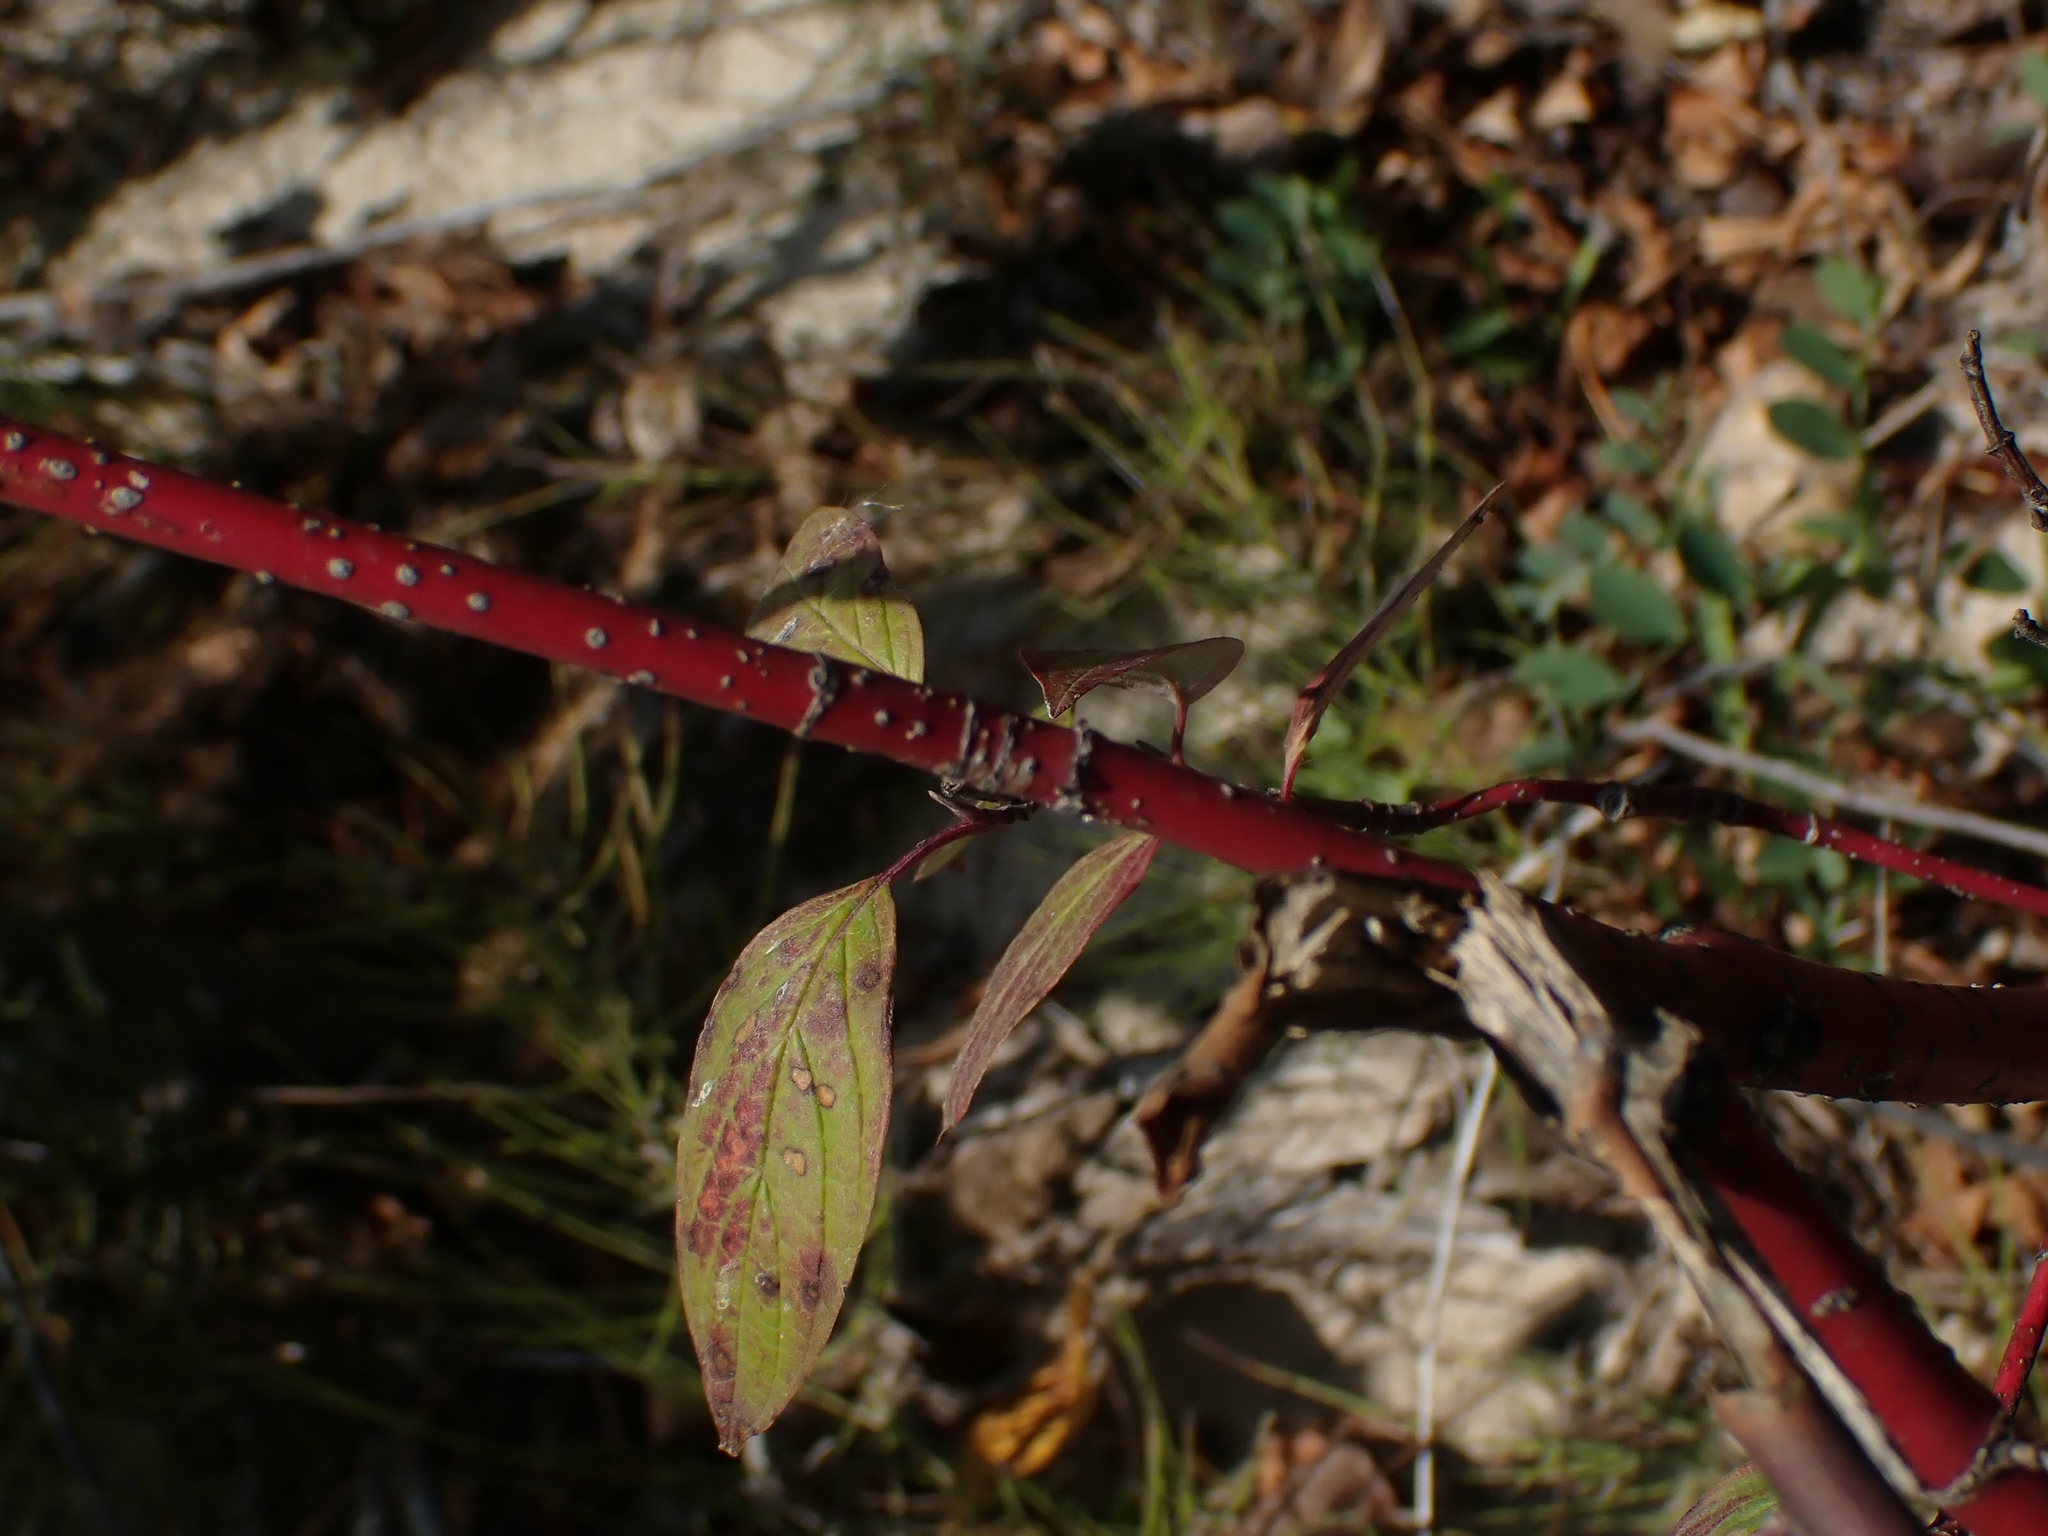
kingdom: Plantae
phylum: Tracheophyta
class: Magnoliopsida
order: Cornales
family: Cornaceae
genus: Cornus
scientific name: Cornus sericea
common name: Red-osier dogwood
